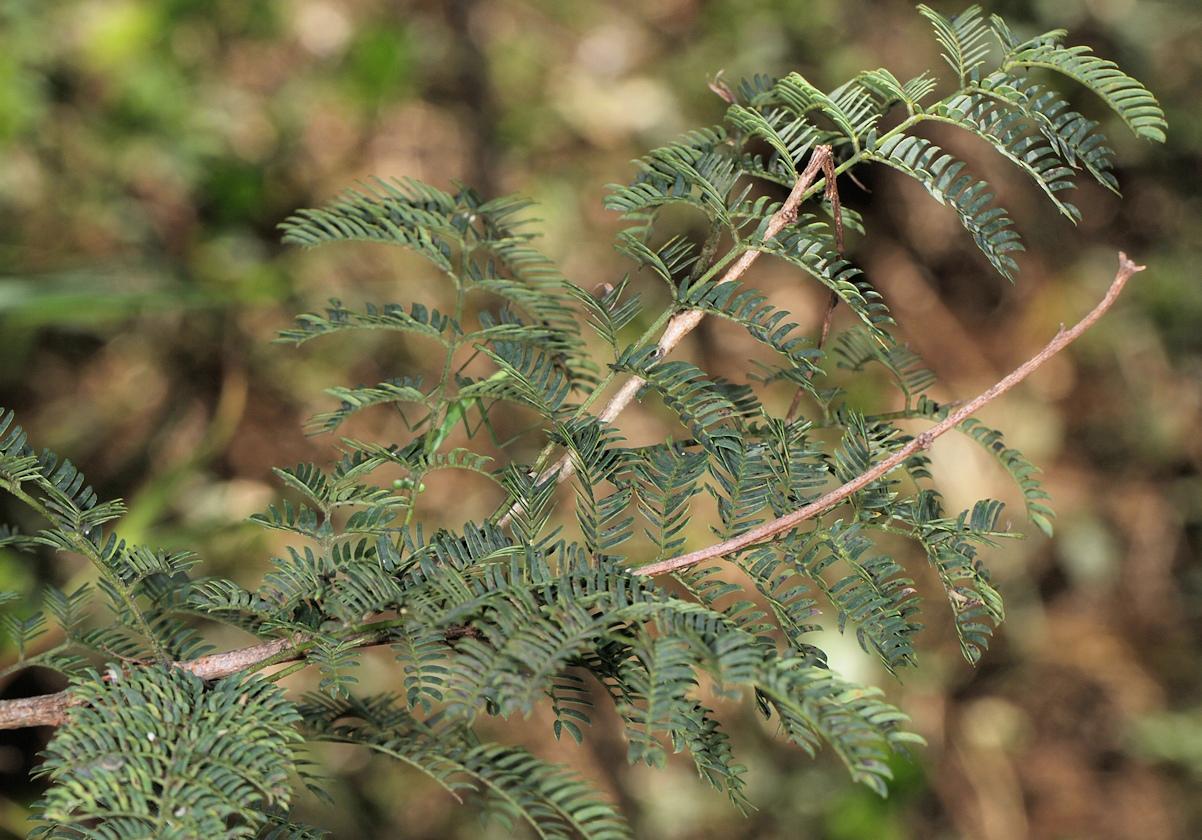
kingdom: Plantae
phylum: Tracheophyta
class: Magnoliopsida
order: Fabales
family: Fabaceae
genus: Albizia
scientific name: Albizia harveyi
